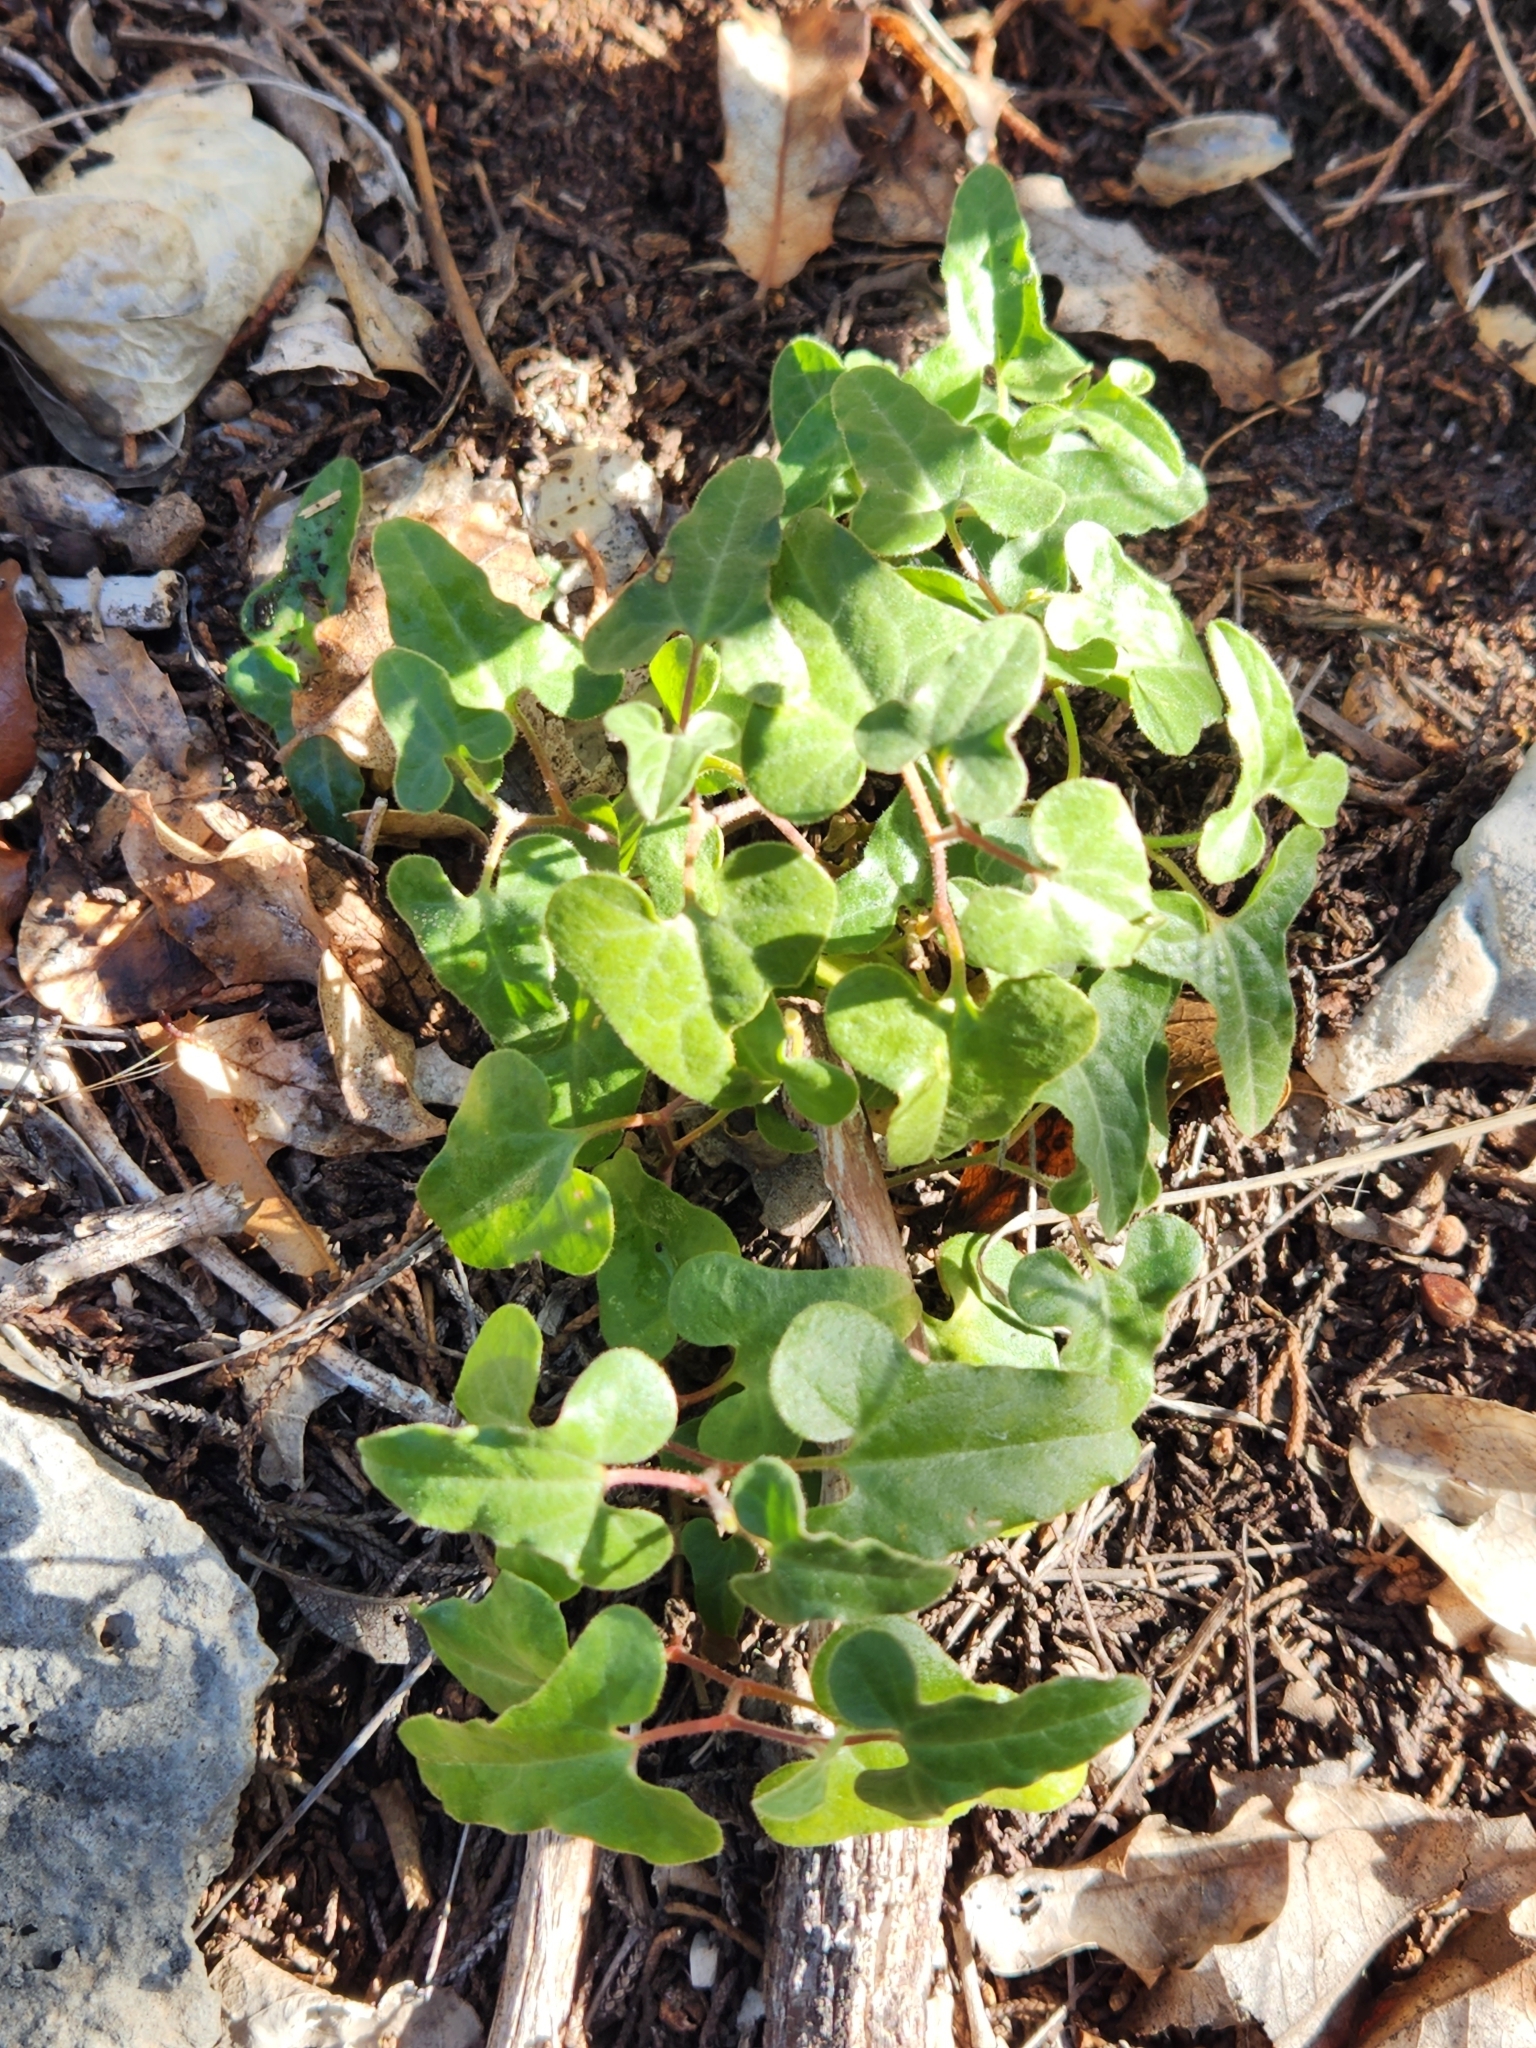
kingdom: Plantae
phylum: Tracheophyta
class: Magnoliopsida
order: Piperales
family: Aristolochiaceae
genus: Aristolochia
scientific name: Aristolochia coryi
